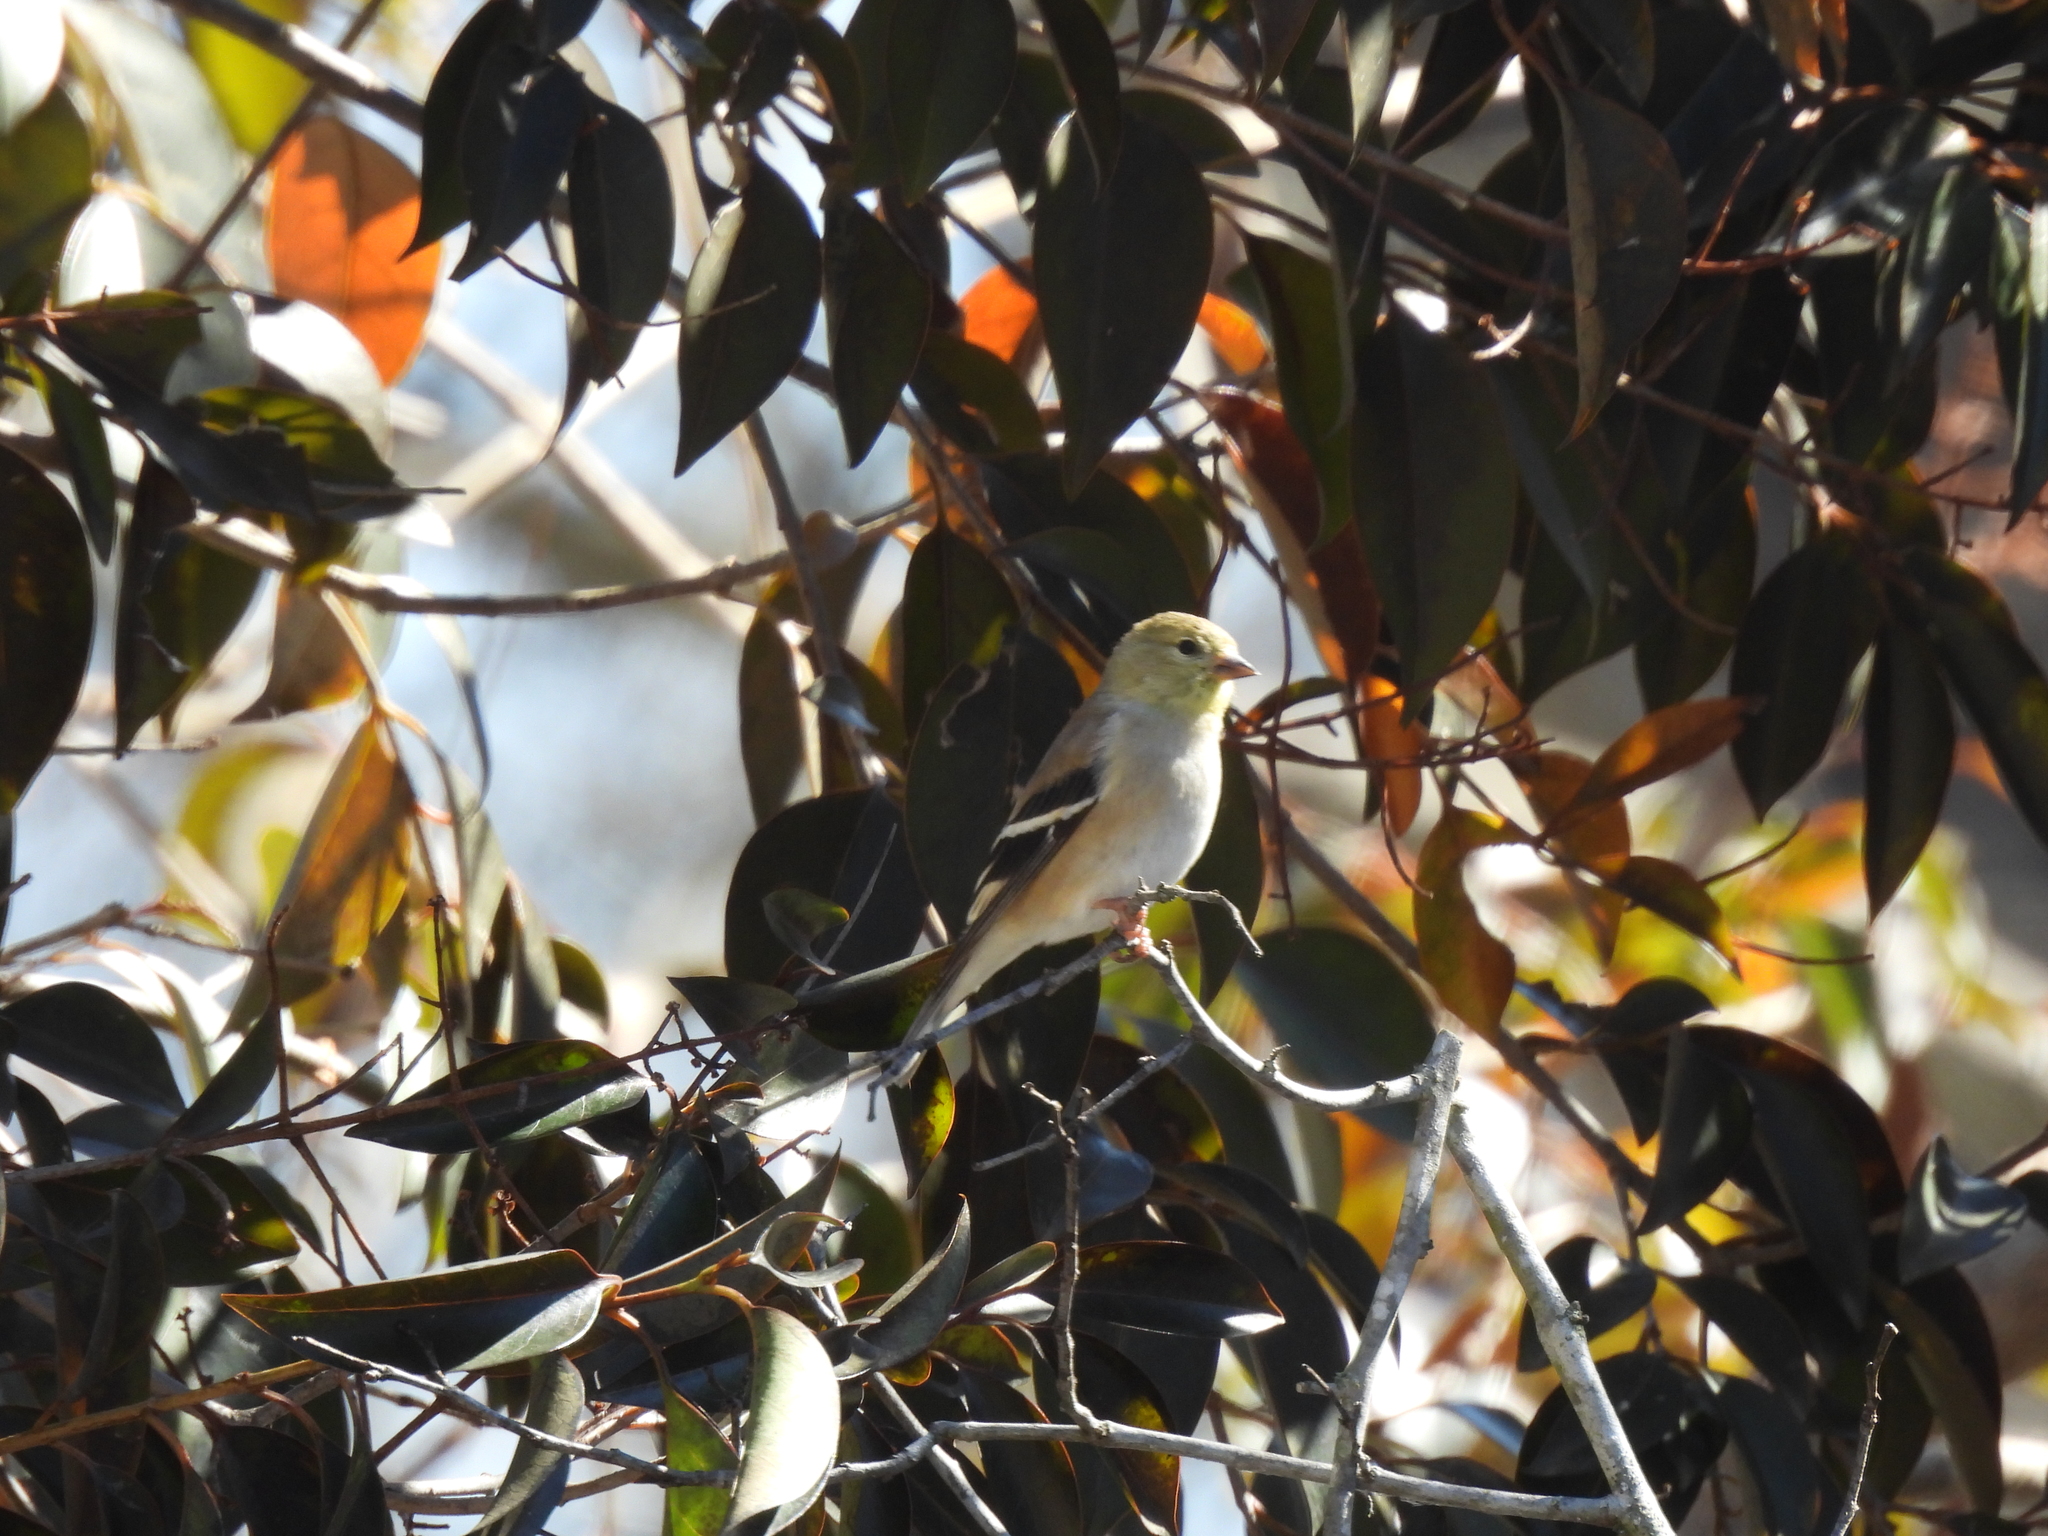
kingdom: Animalia
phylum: Chordata
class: Aves
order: Passeriformes
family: Fringillidae
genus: Spinus
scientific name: Spinus tristis
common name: American goldfinch
